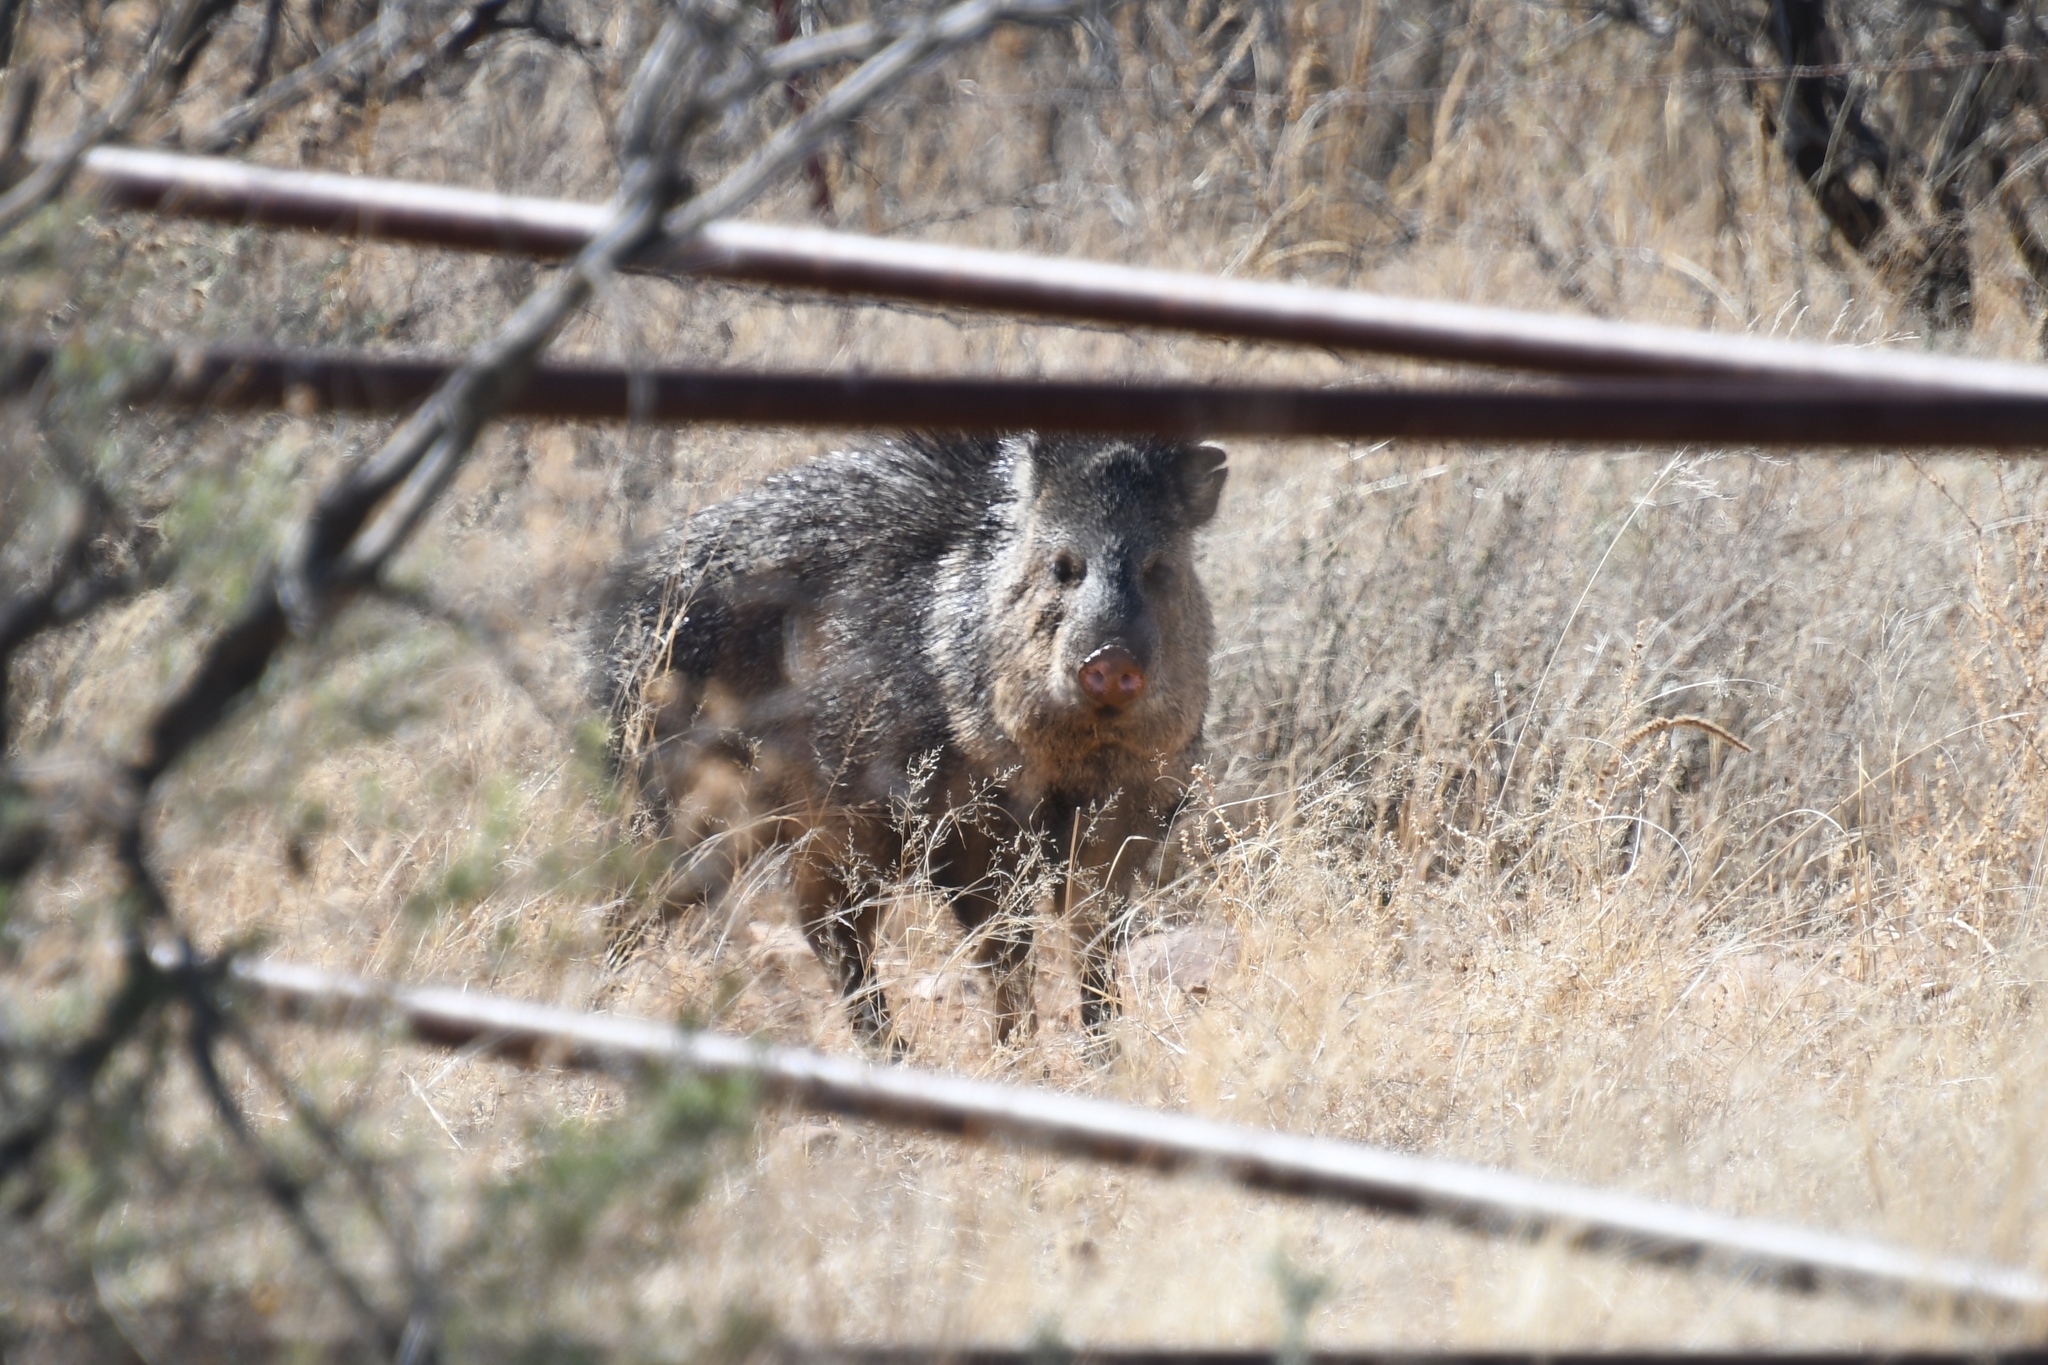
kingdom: Animalia
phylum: Chordata
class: Mammalia
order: Artiodactyla
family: Tayassuidae
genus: Pecari
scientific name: Pecari tajacu
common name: Collared peccary
